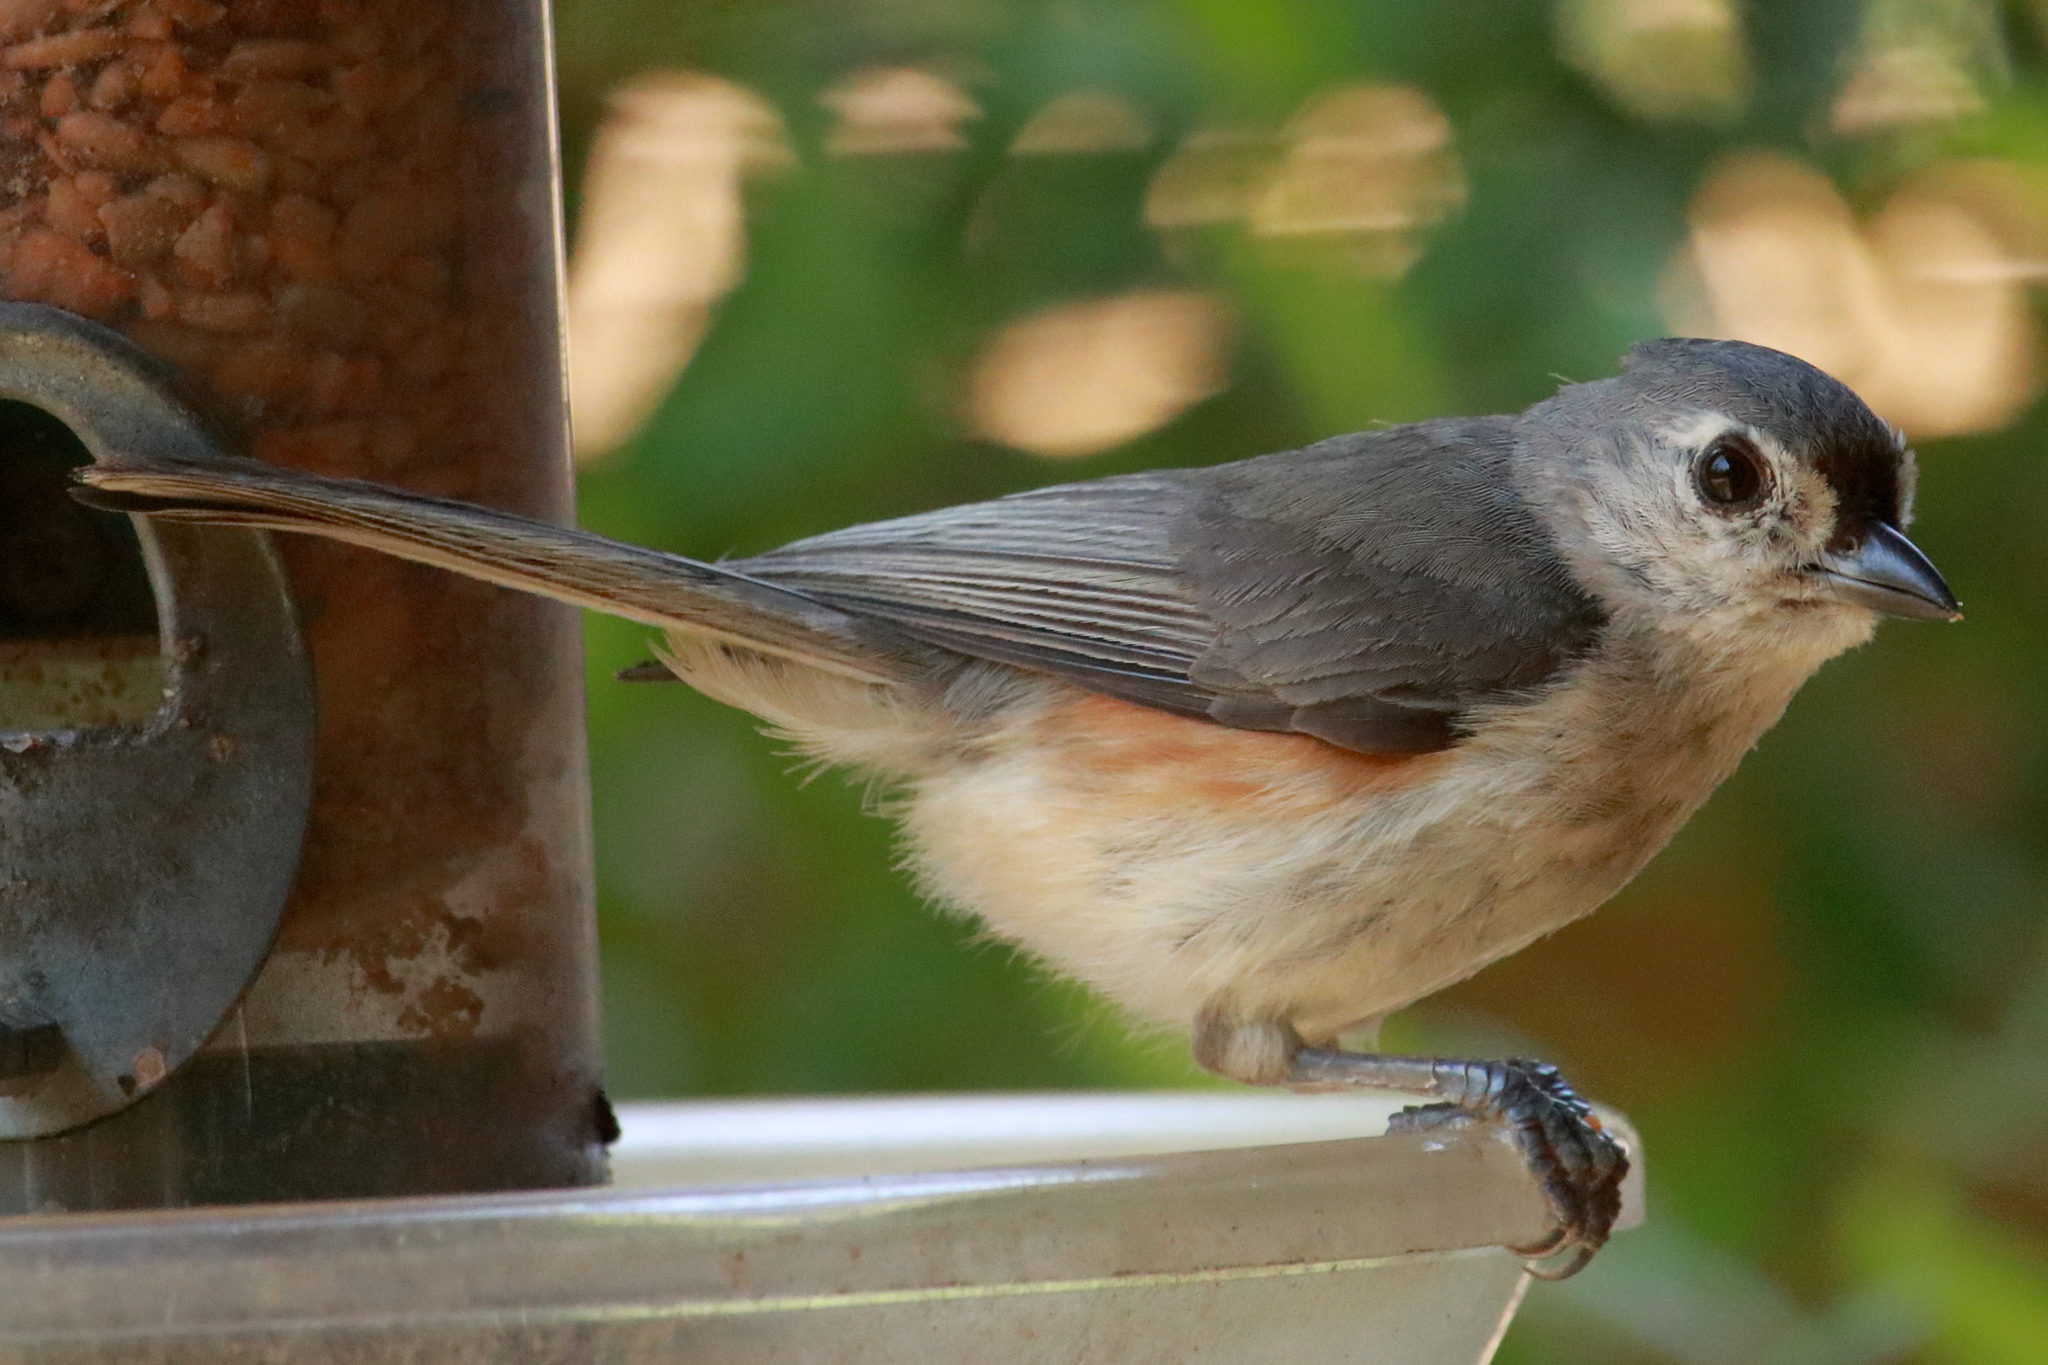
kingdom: Animalia
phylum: Chordata
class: Aves
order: Passeriformes
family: Paridae
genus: Baeolophus
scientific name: Baeolophus bicolor
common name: Tufted titmouse
